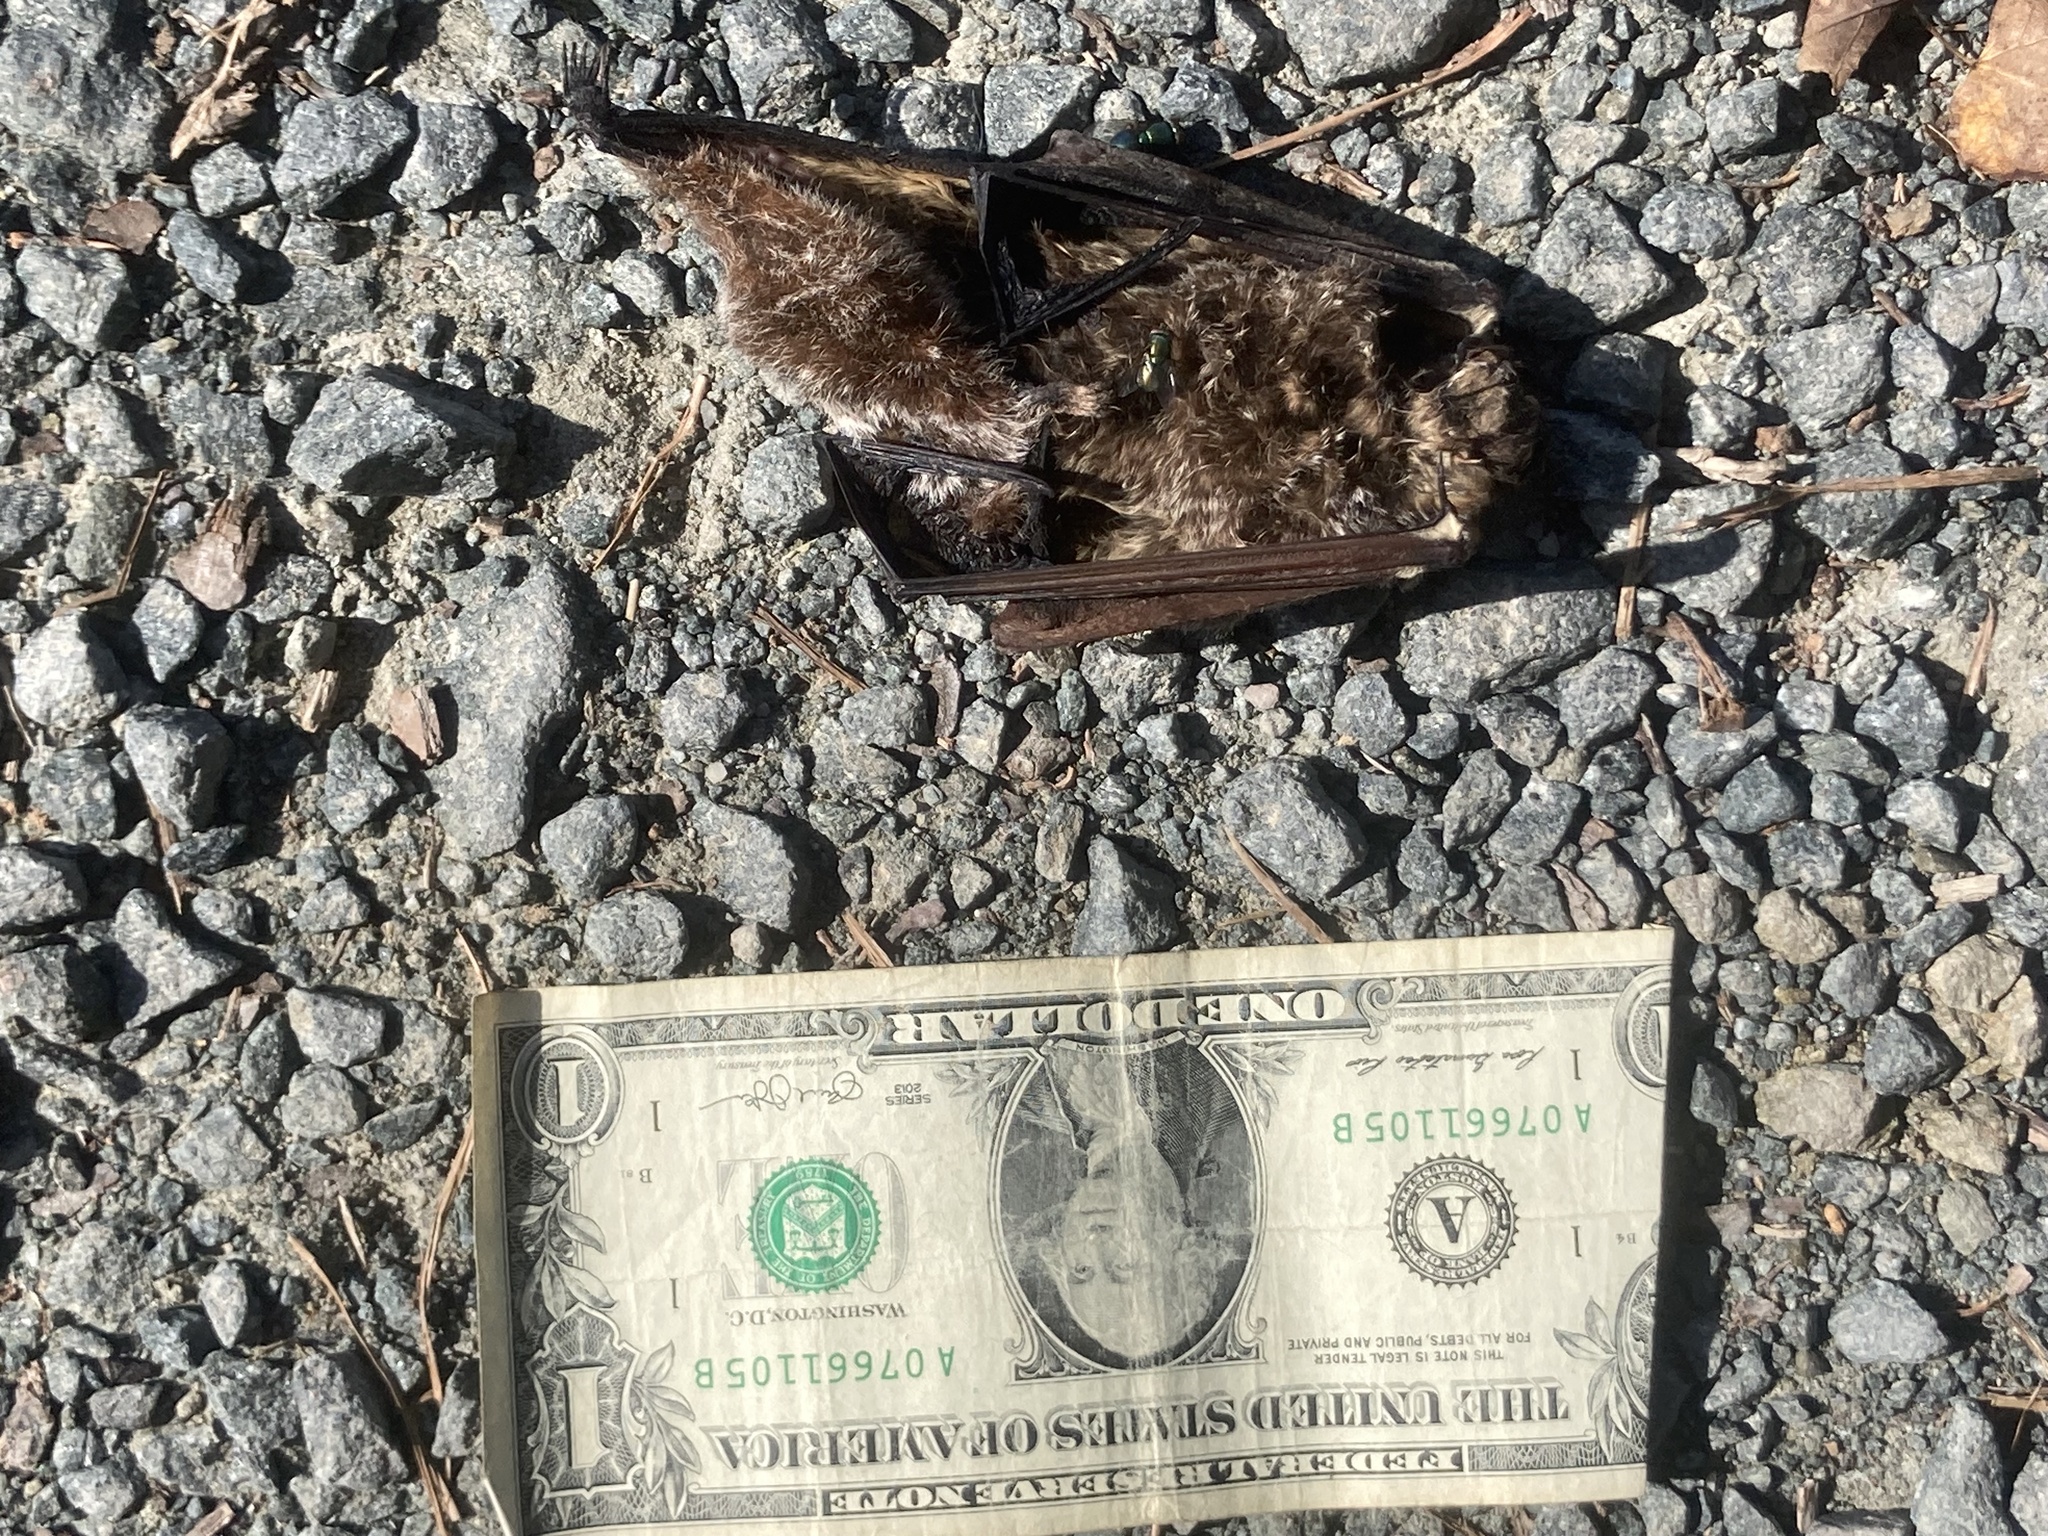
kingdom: Animalia
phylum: Chordata
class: Mammalia
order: Chiroptera
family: Vespertilionidae
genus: Aeorestes
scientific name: Aeorestes cinereus
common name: North american hoary bat
